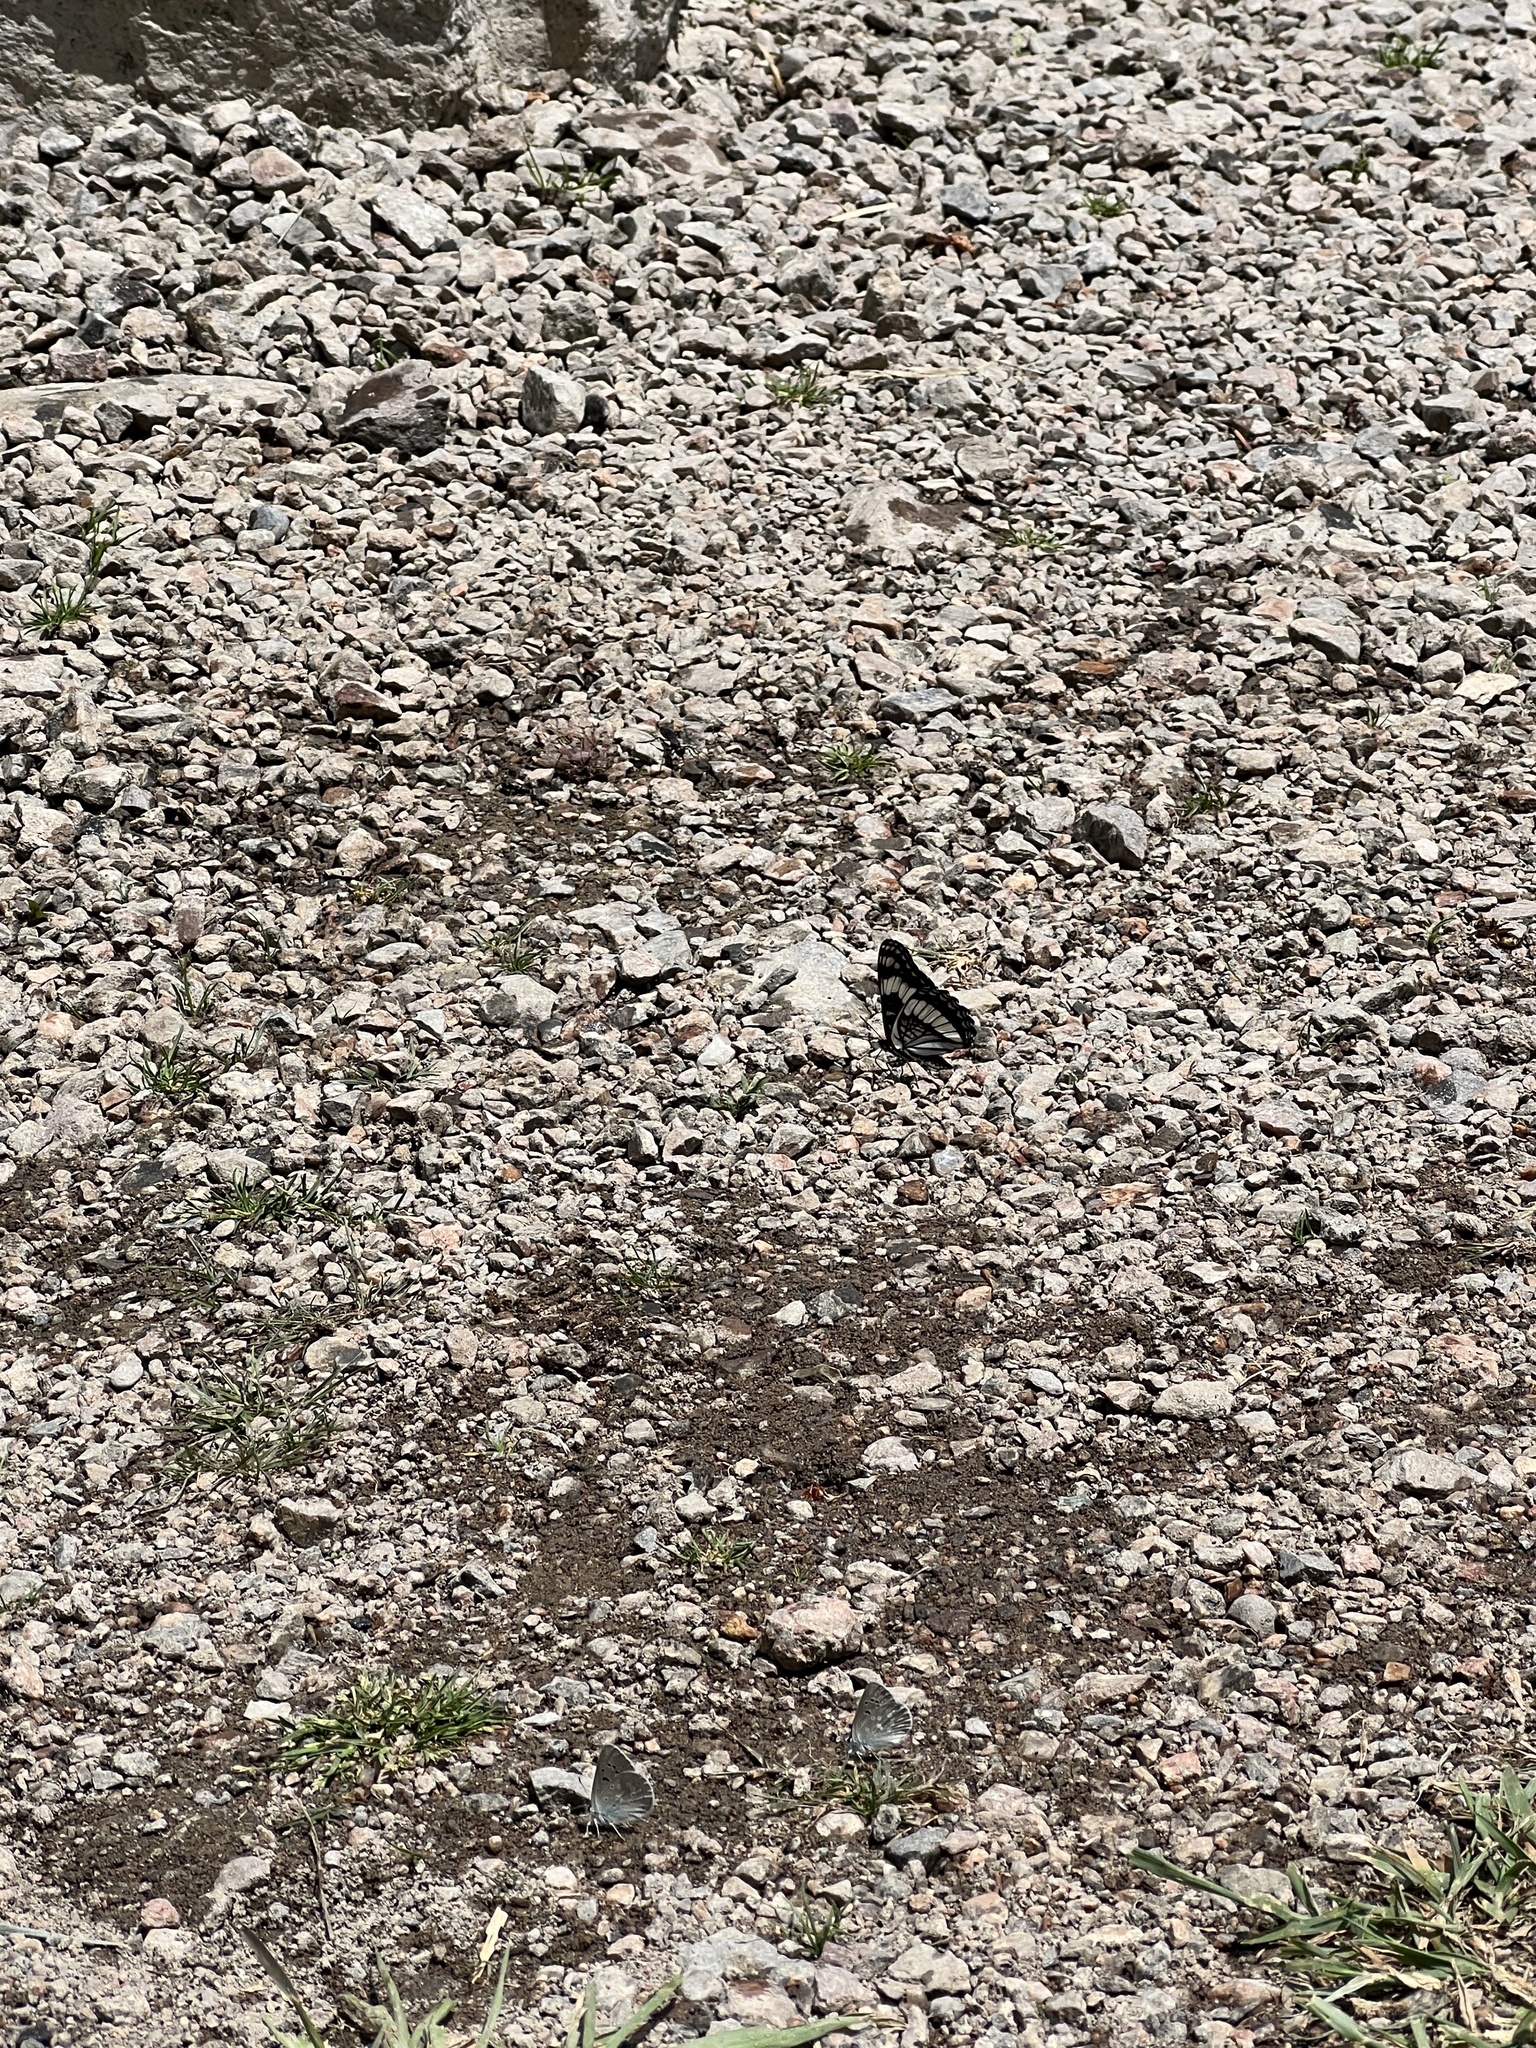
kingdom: Animalia
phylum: Arthropoda
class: Insecta
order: Lepidoptera
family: Nymphalidae
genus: Limenitis
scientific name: Limenitis weidemeyerii
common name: Weidemeyer's admiral
